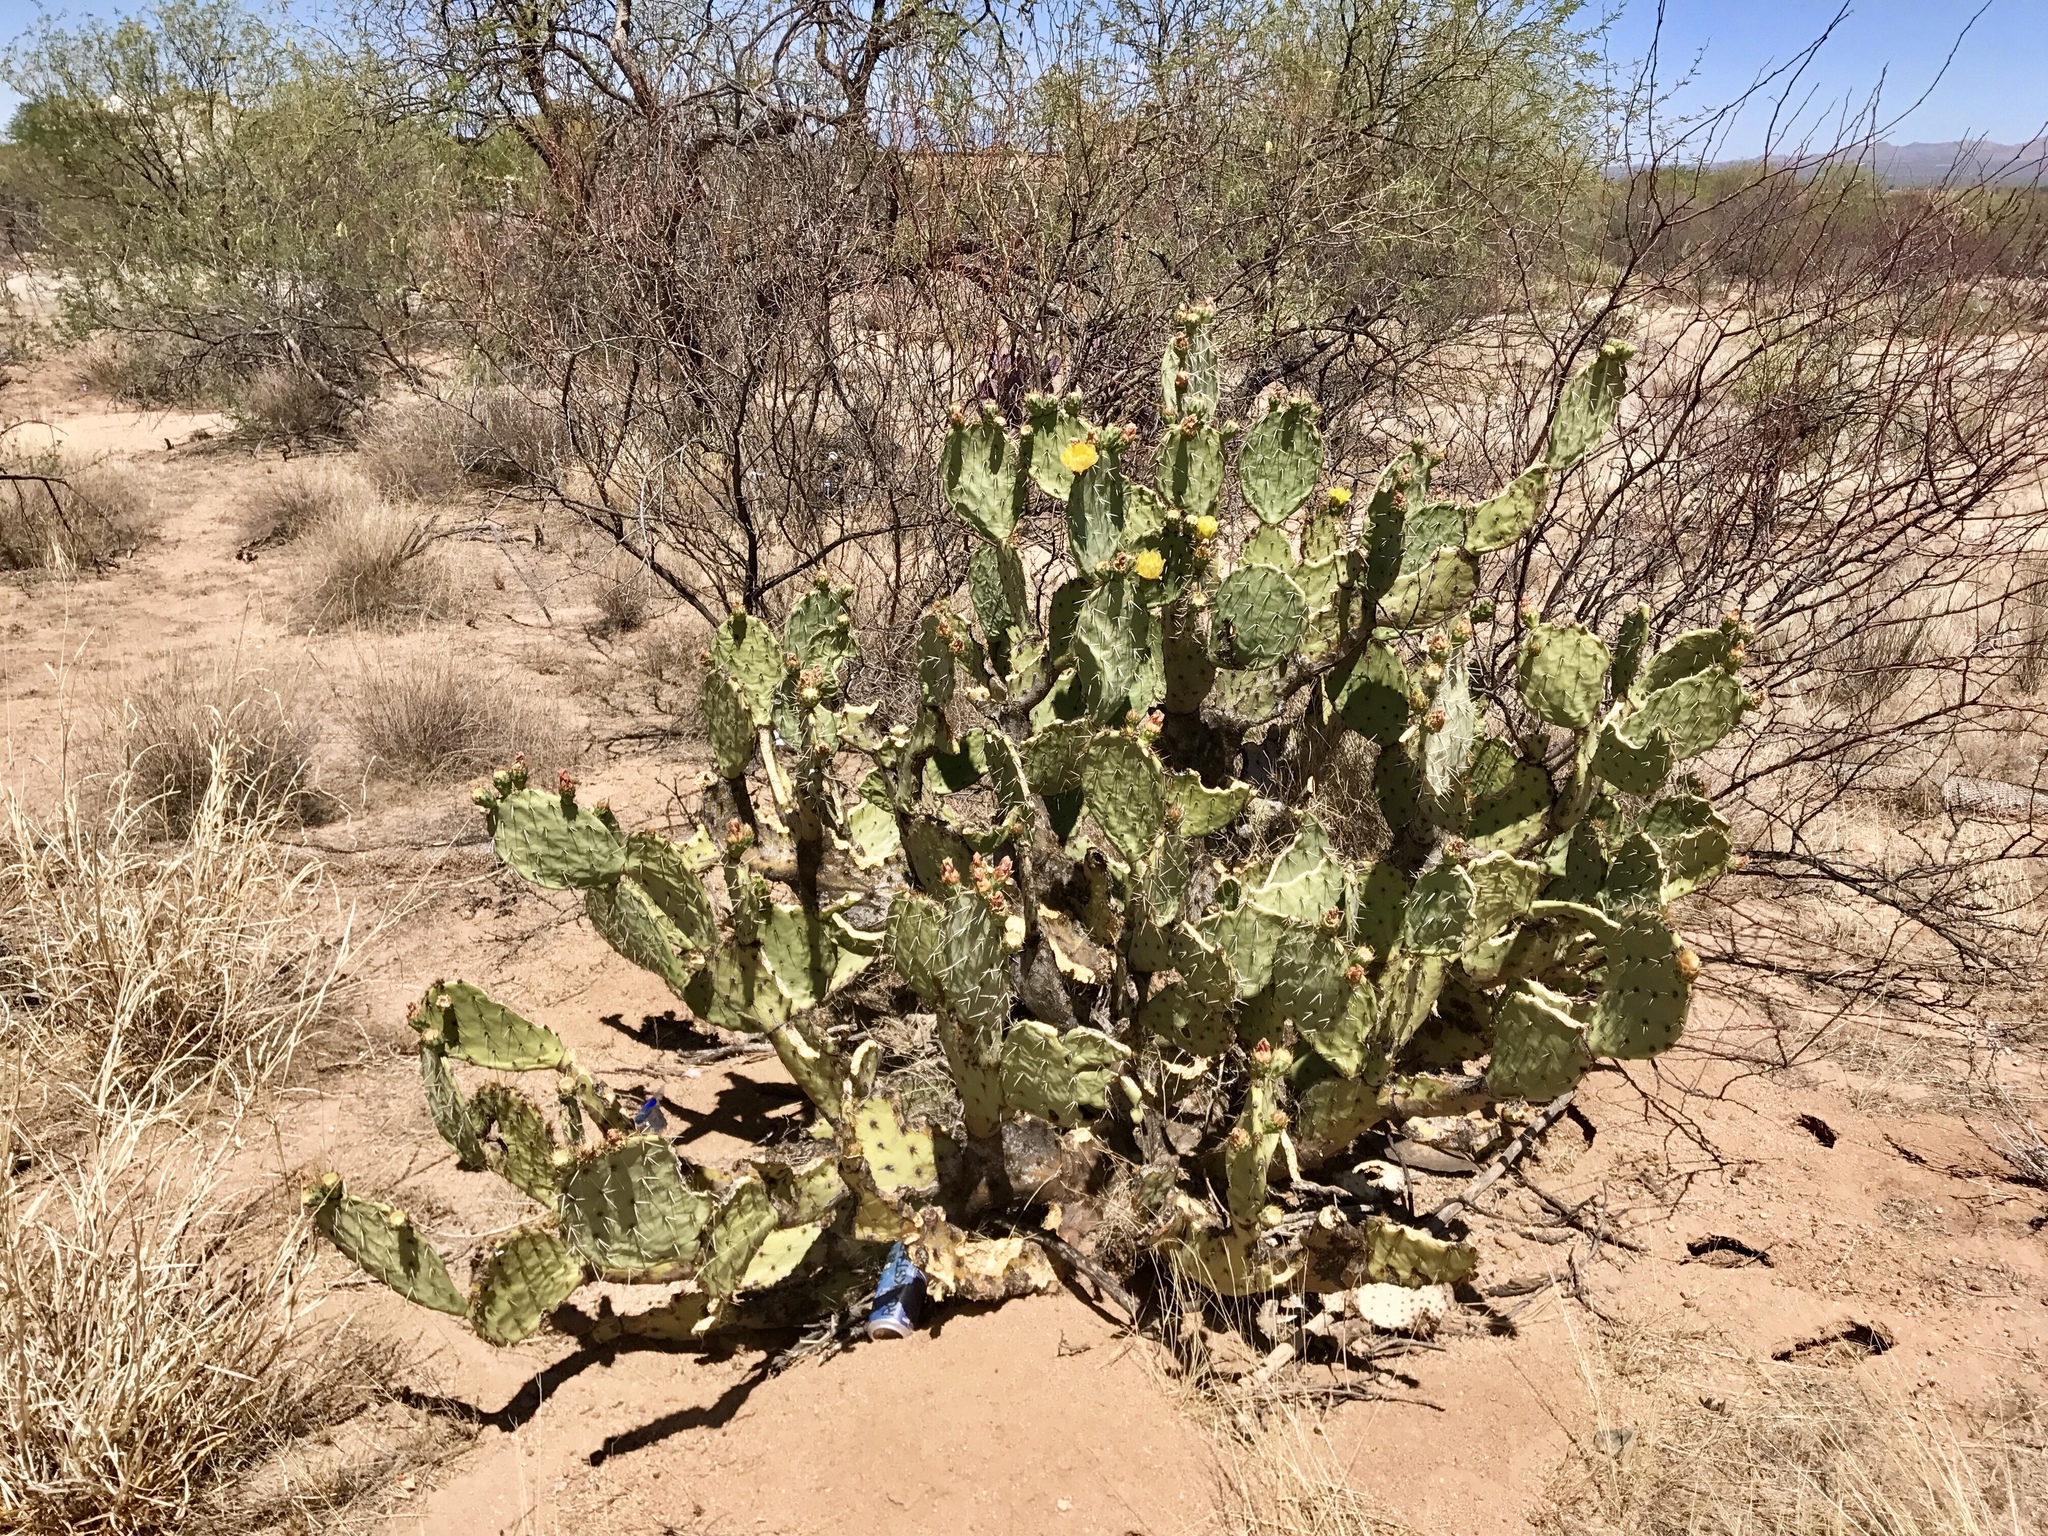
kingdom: Plantae
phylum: Tracheophyta
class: Magnoliopsida
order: Caryophyllales
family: Cactaceae
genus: Opuntia
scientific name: Opuntia engelmannii
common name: Cactus-apple
